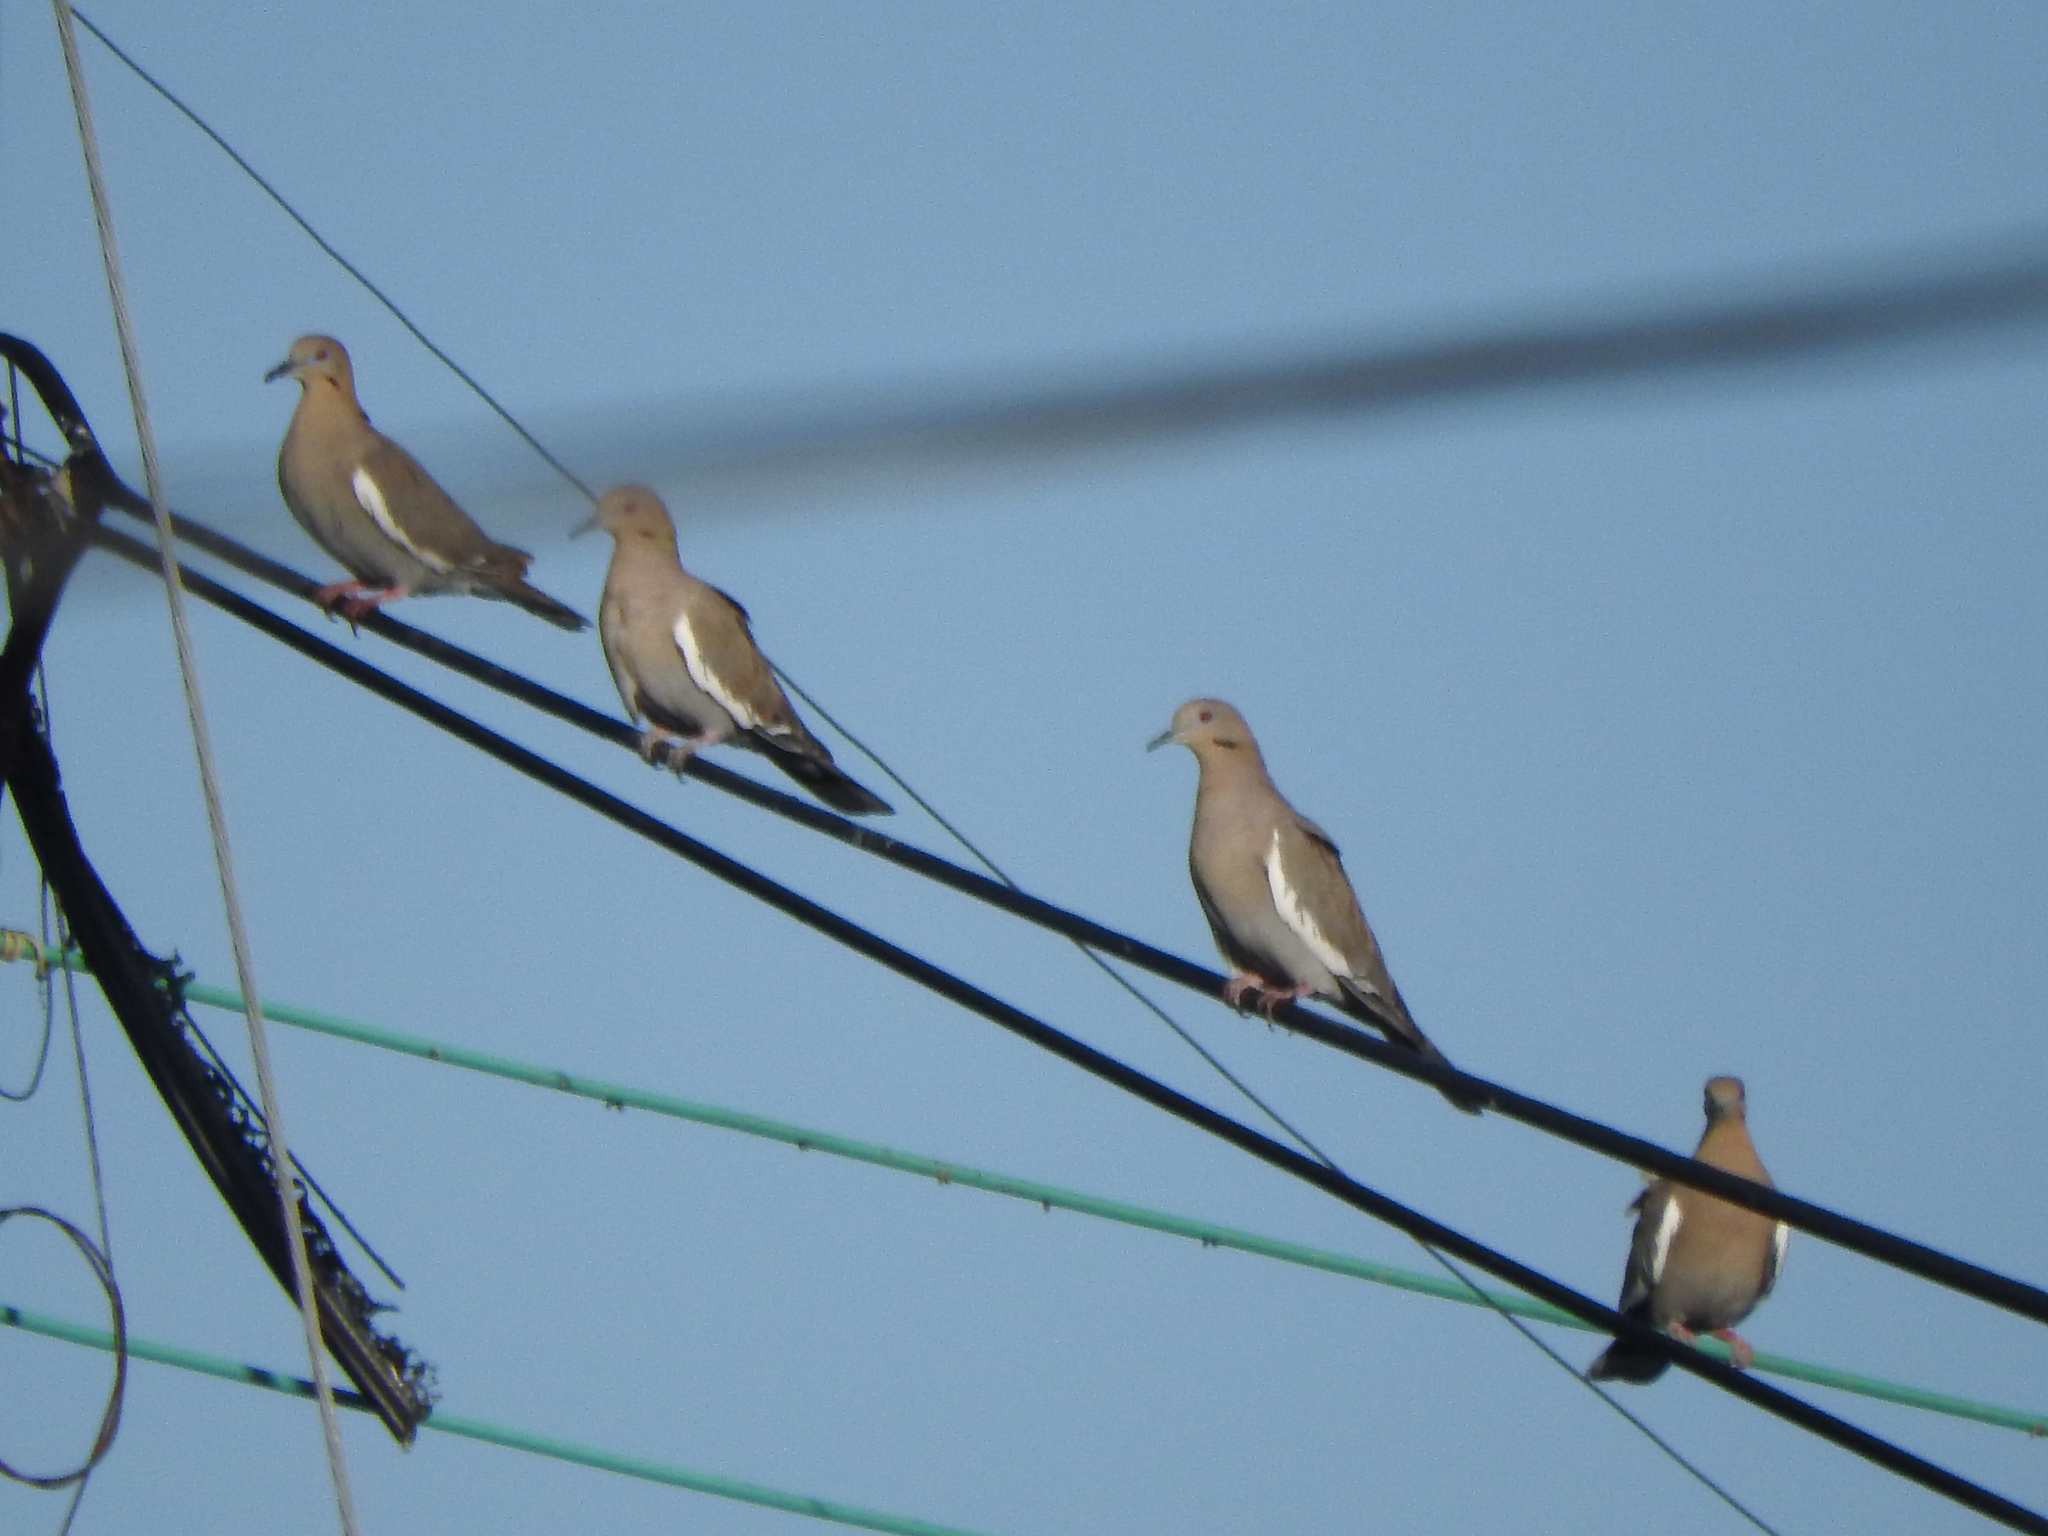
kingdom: Animalia
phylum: Chordata
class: Aves
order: Columbiformes
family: Columbidae
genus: Zenaida
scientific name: Zenaida asiatica
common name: White-winged dove
